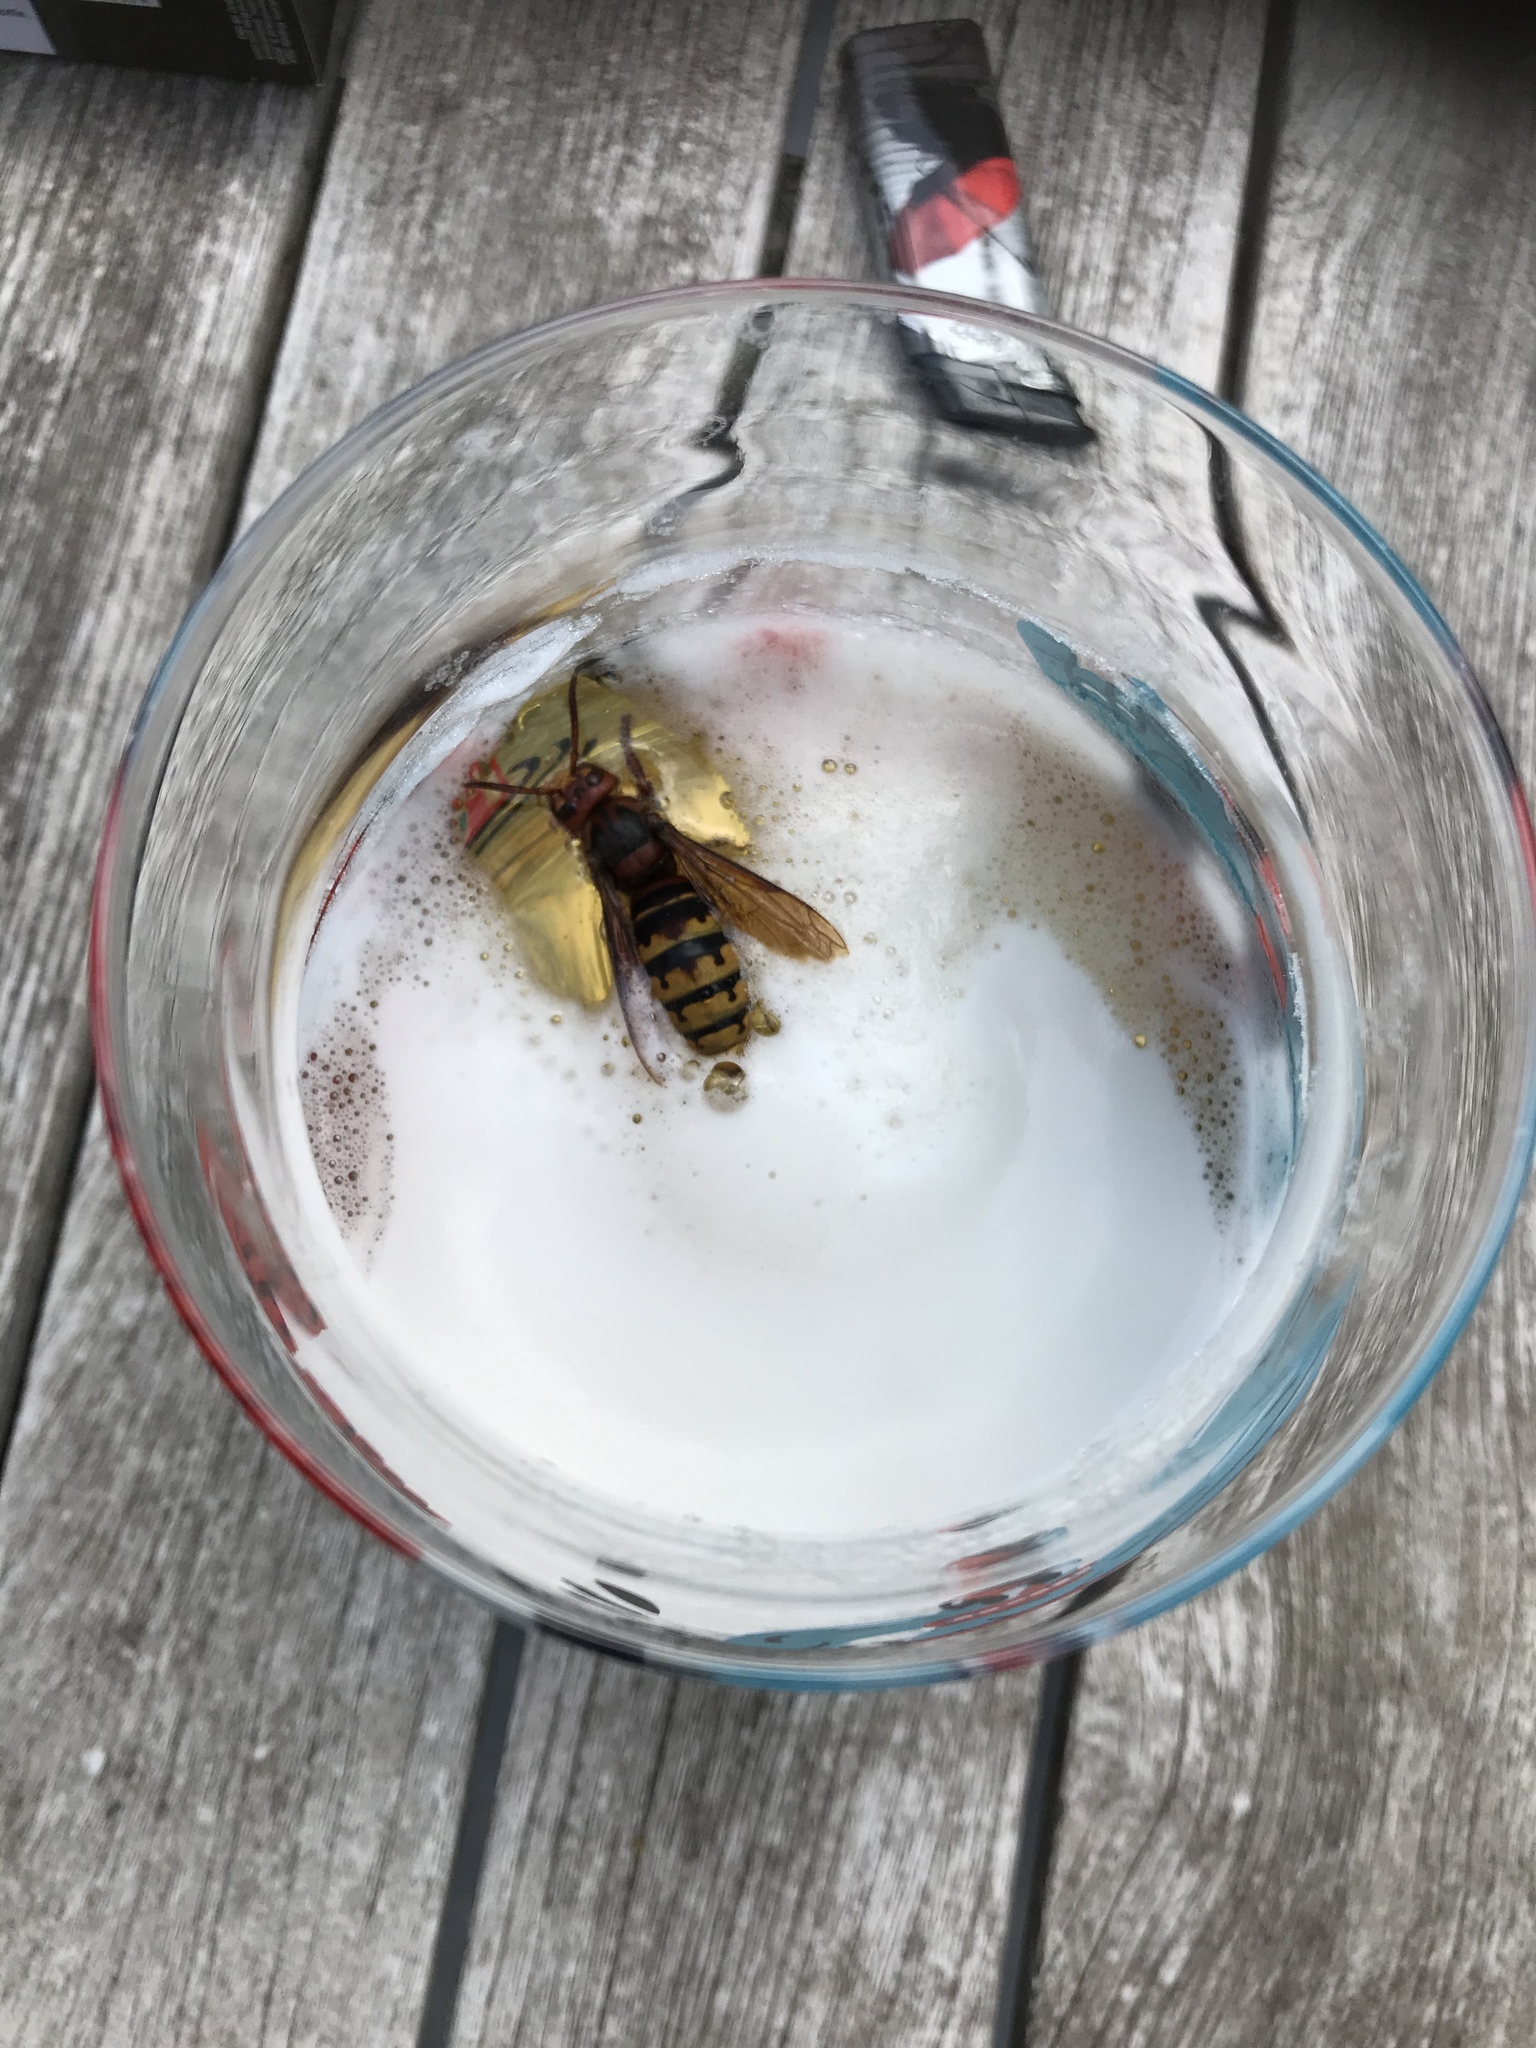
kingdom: Animalia
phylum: Arthropoda
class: Insecta
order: Hymenoptera
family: Vespidae
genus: Vespa
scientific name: Vespa crabro
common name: Hornet
